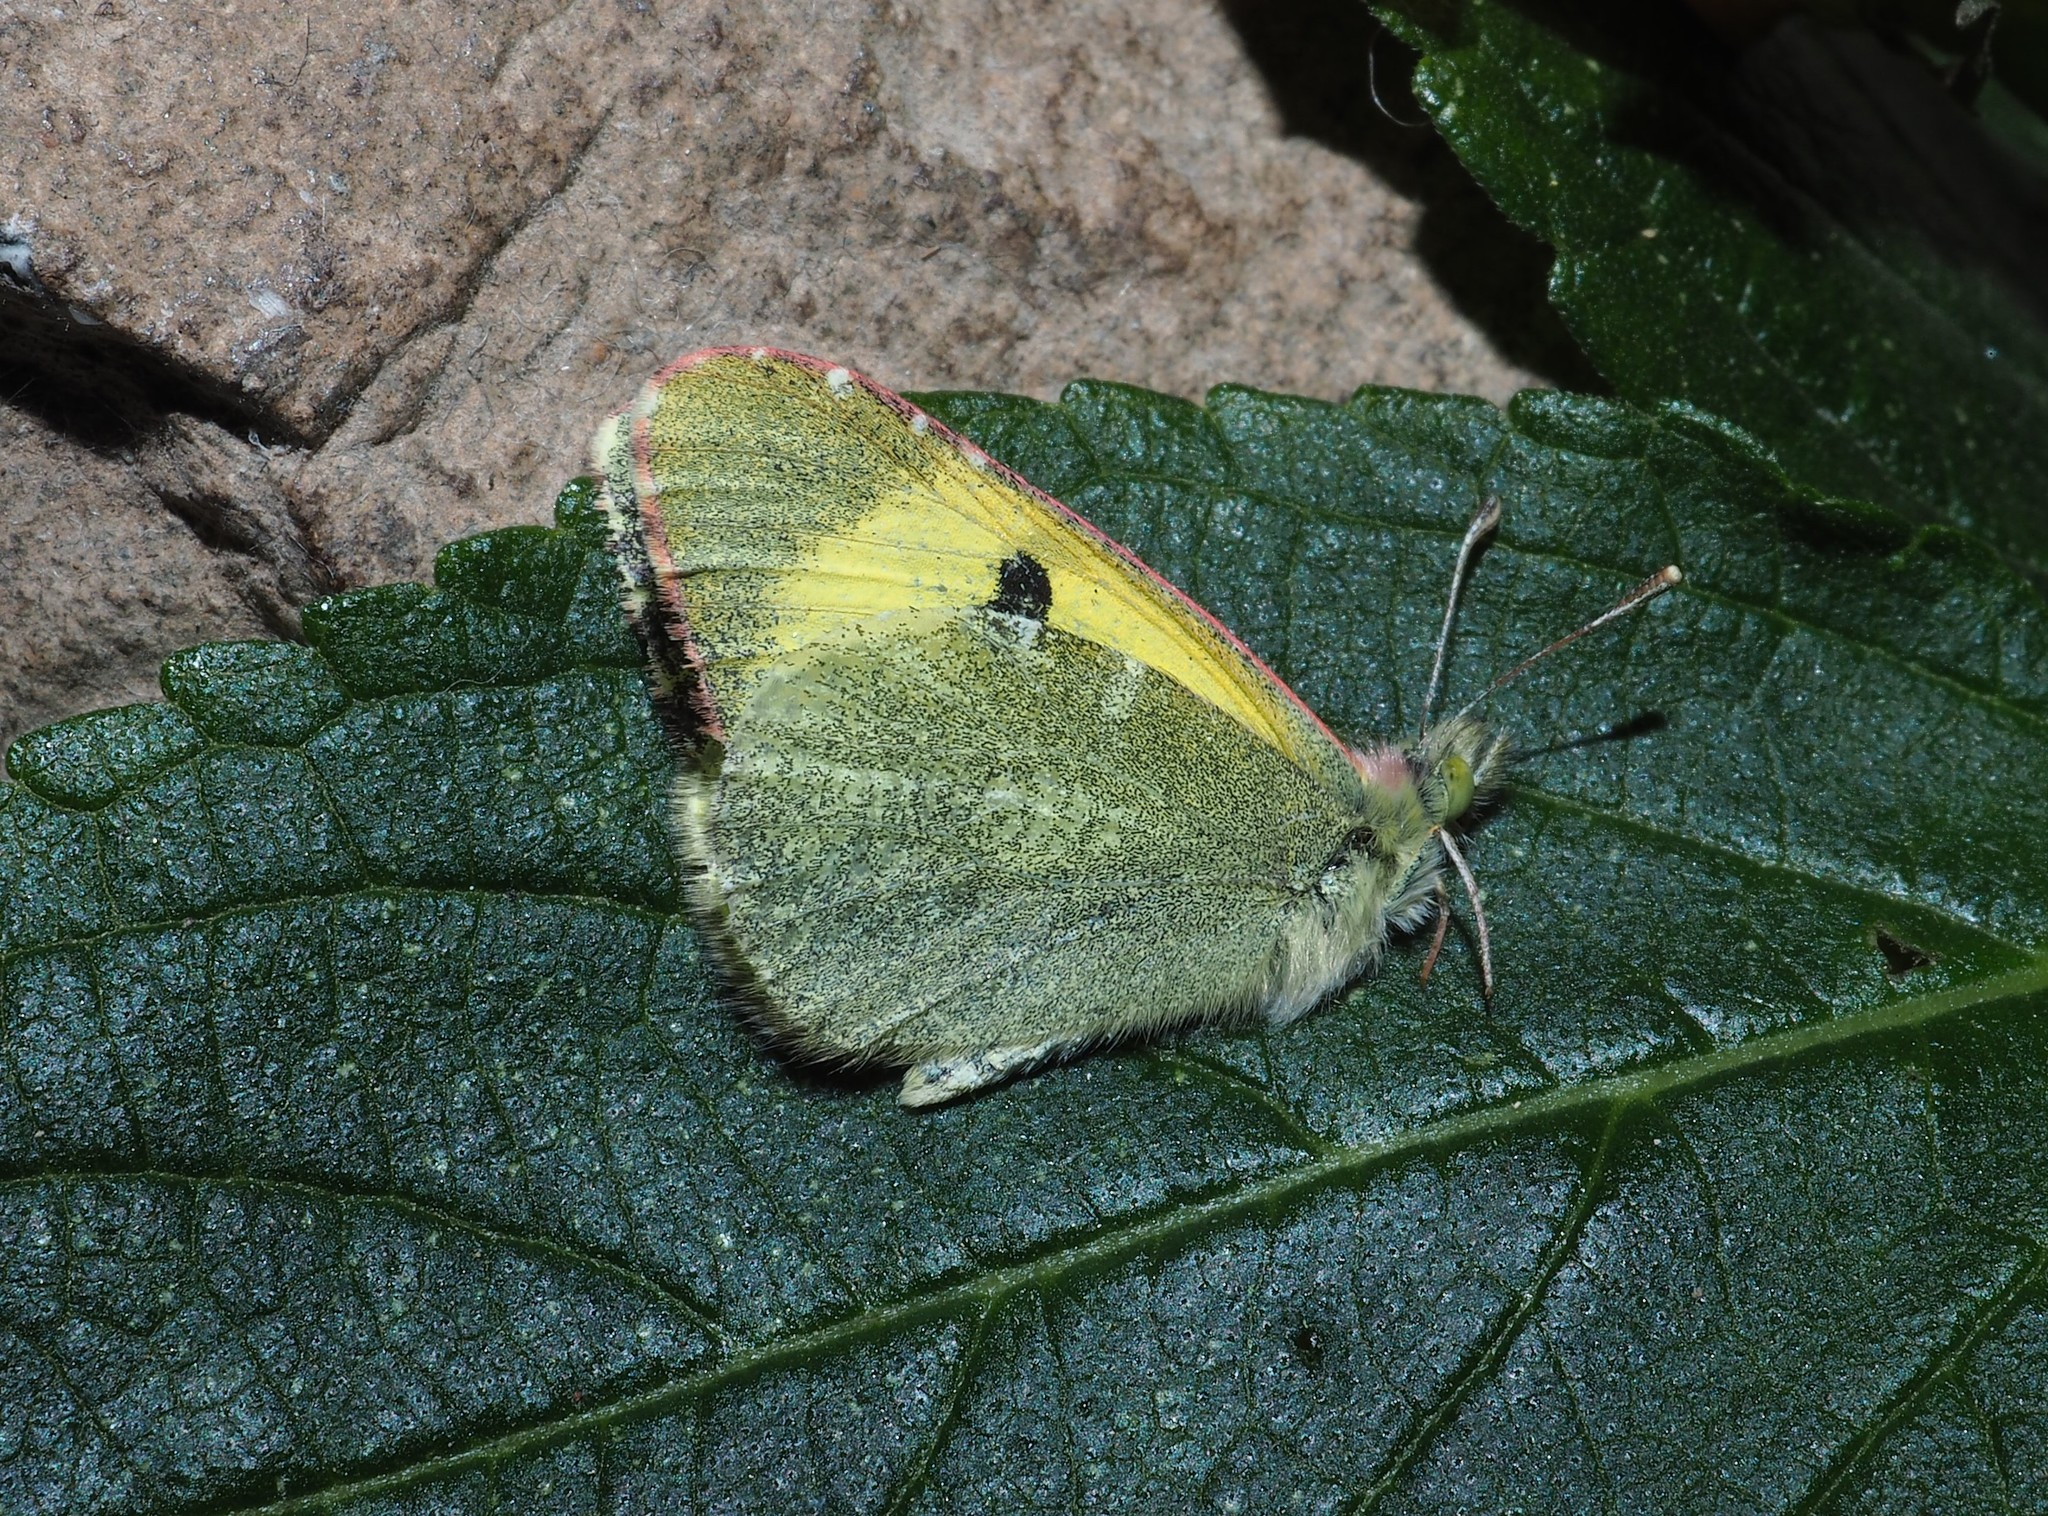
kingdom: Animalia
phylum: Arthropoda
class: Insecta
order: Lepidoptera
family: Pieridae
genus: Elphinstonia
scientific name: Elphinstonia charlonia
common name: Greenish black-tip
